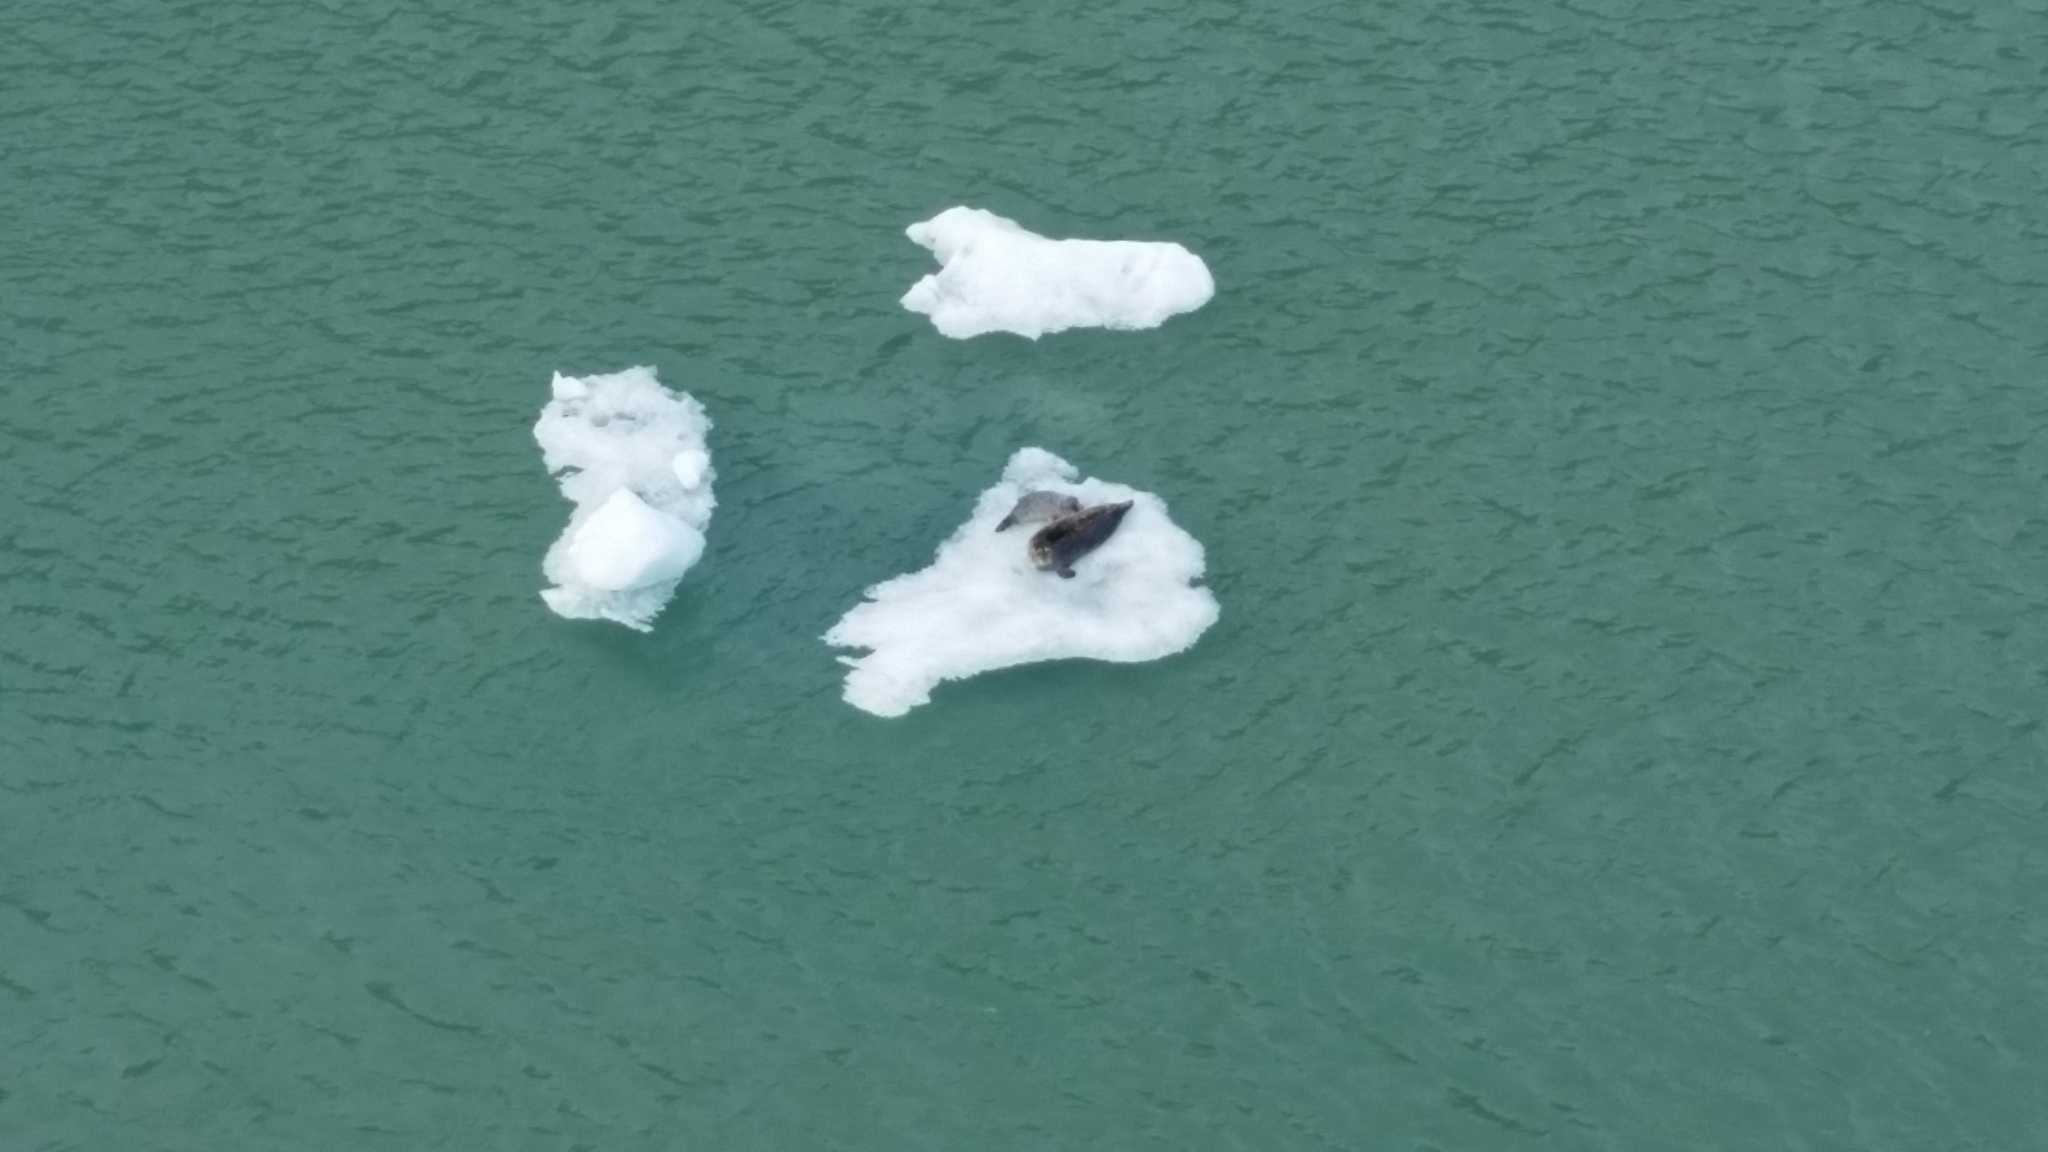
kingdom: Animalia
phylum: Chordata
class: Mammalia
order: Carnivora
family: Phocidae
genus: Phoca
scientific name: Phoca vitulina
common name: Harbor seal
